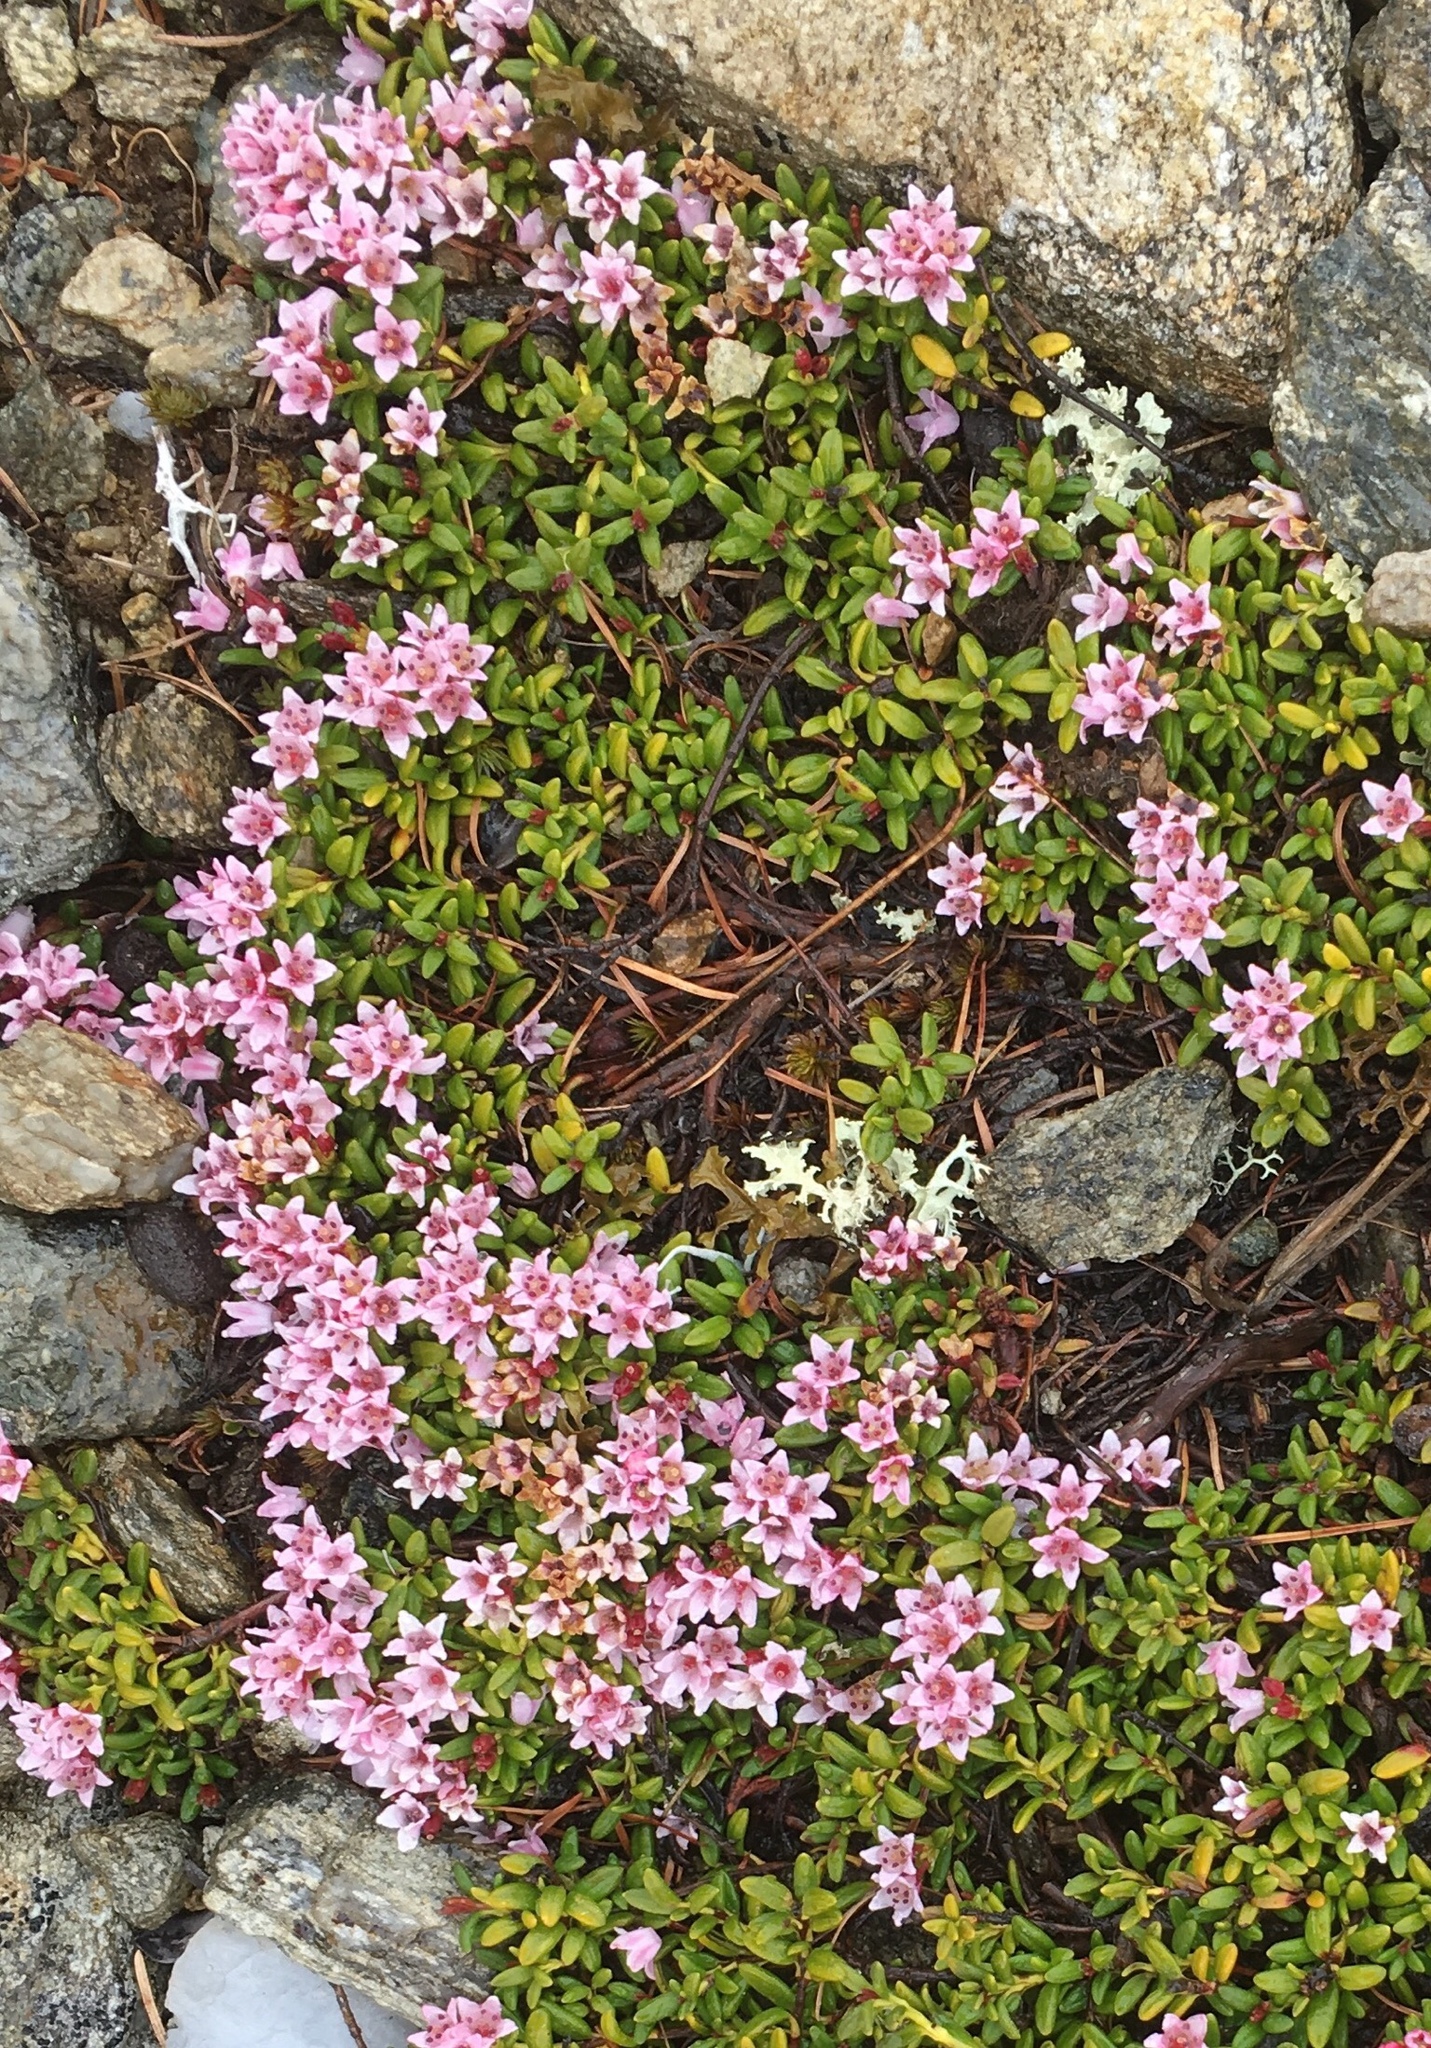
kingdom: Plantae
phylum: Tracheophyta
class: Magnoliopsida
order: Ericales
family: Ericaceae
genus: Kalmia
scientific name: Kalmia procumbens
